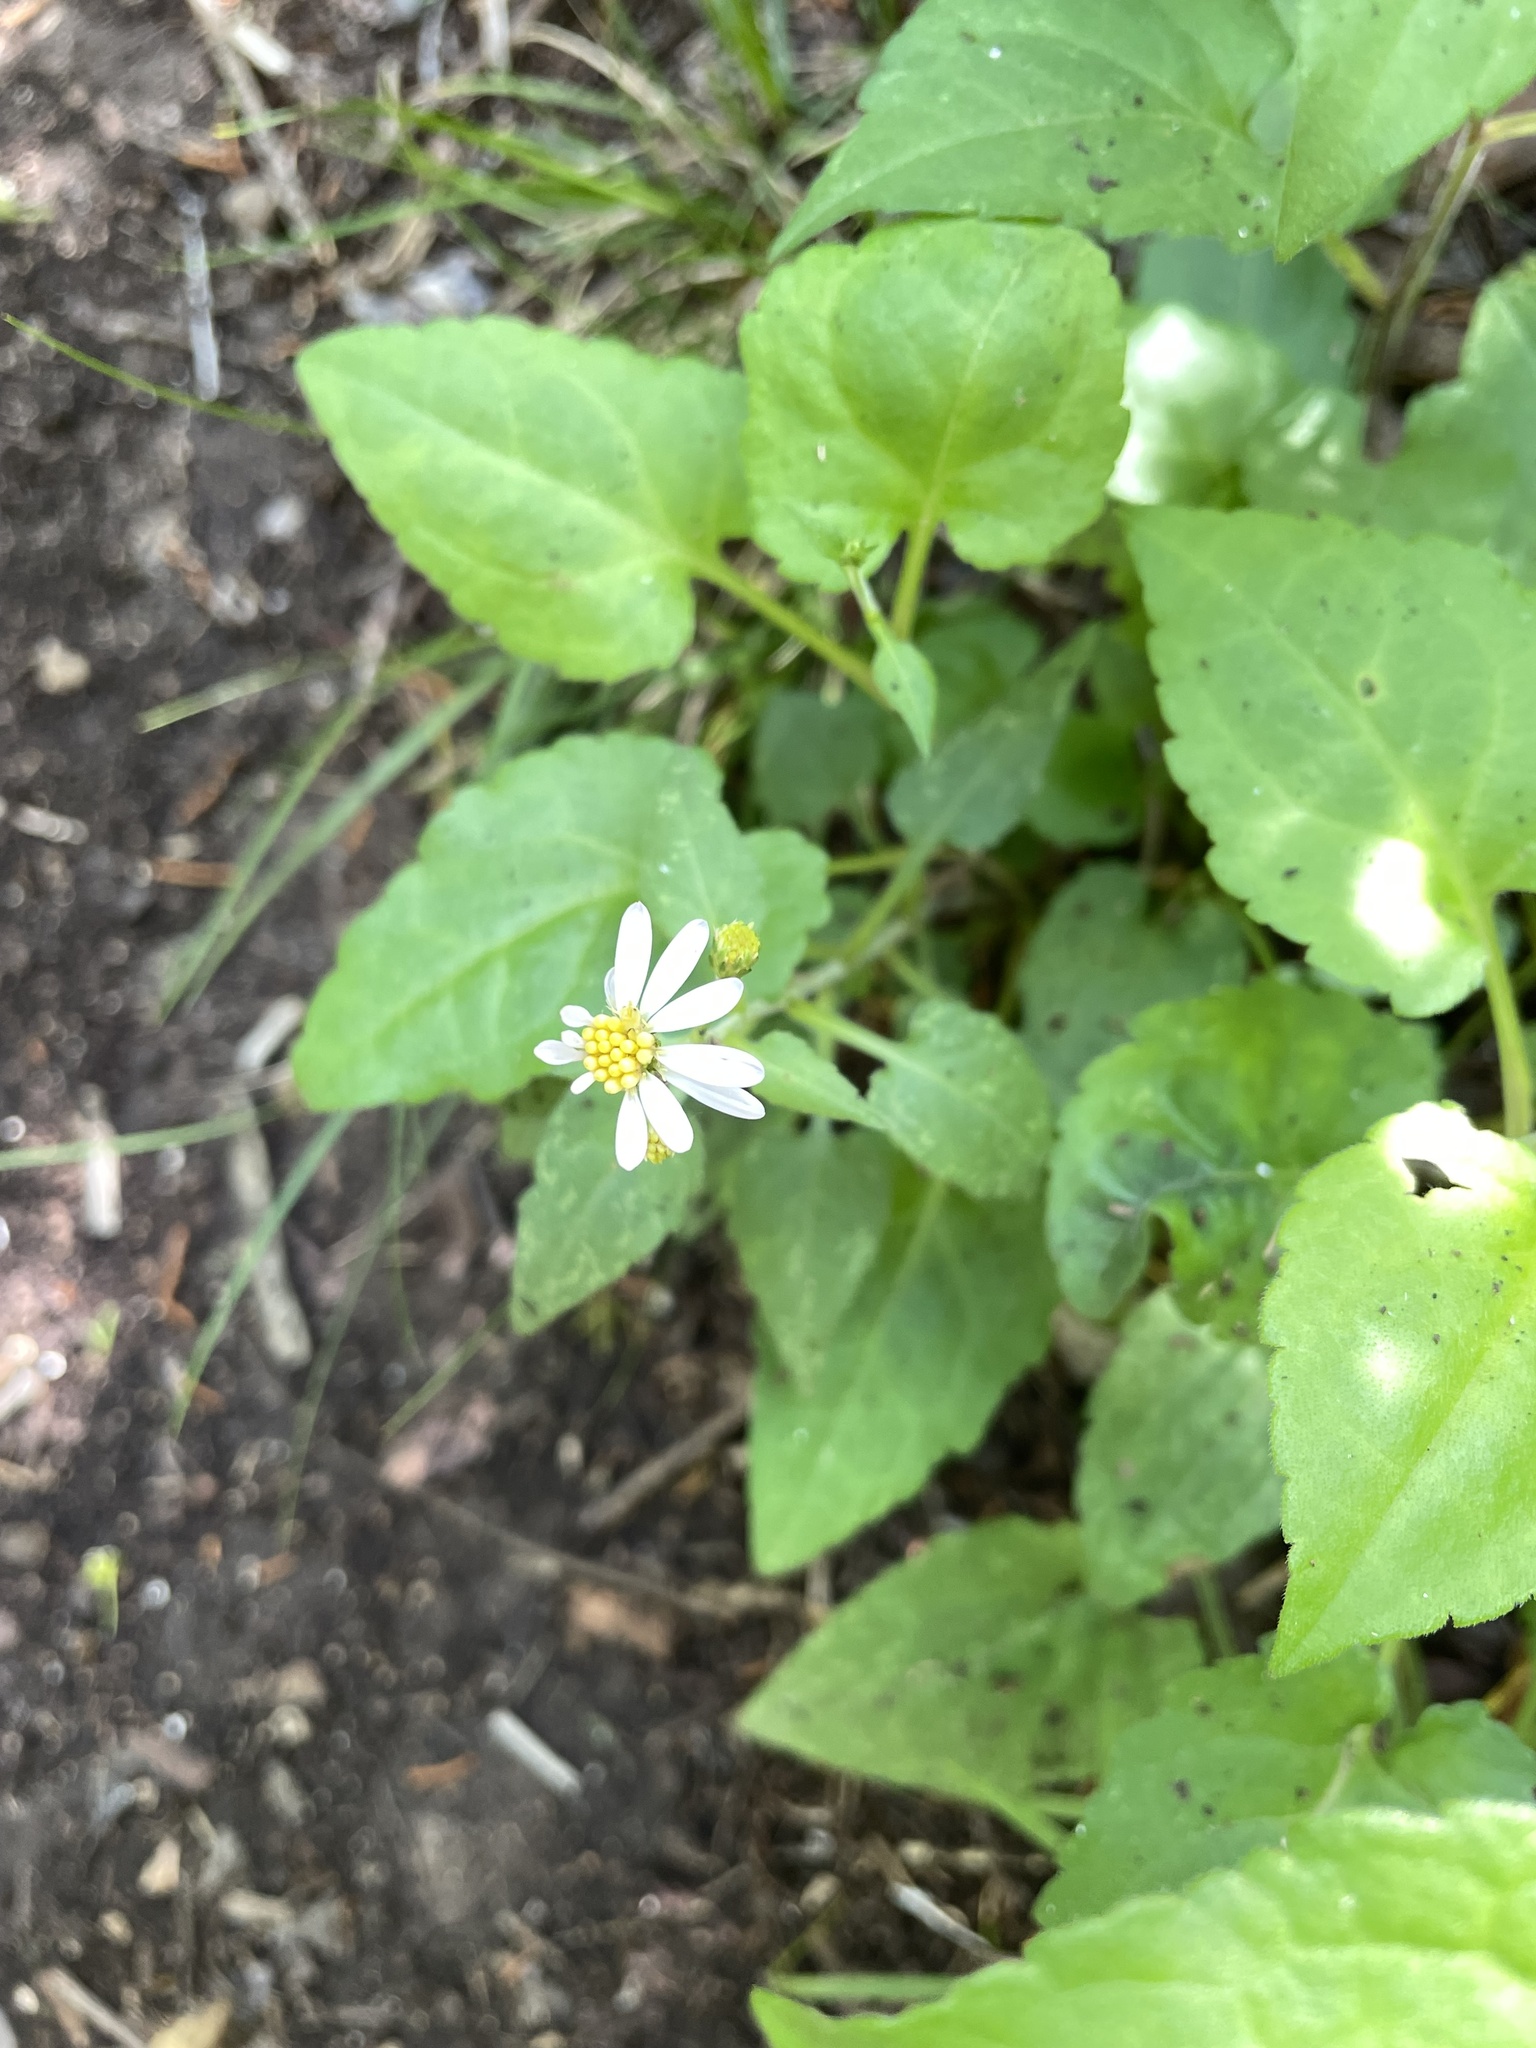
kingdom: Plantae
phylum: Tracheophyta
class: Magnoliopsida
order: Asterales
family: Asteraceae
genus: Symphyotrichum
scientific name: Symphyotrichum drummondii
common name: Drummond's aster
